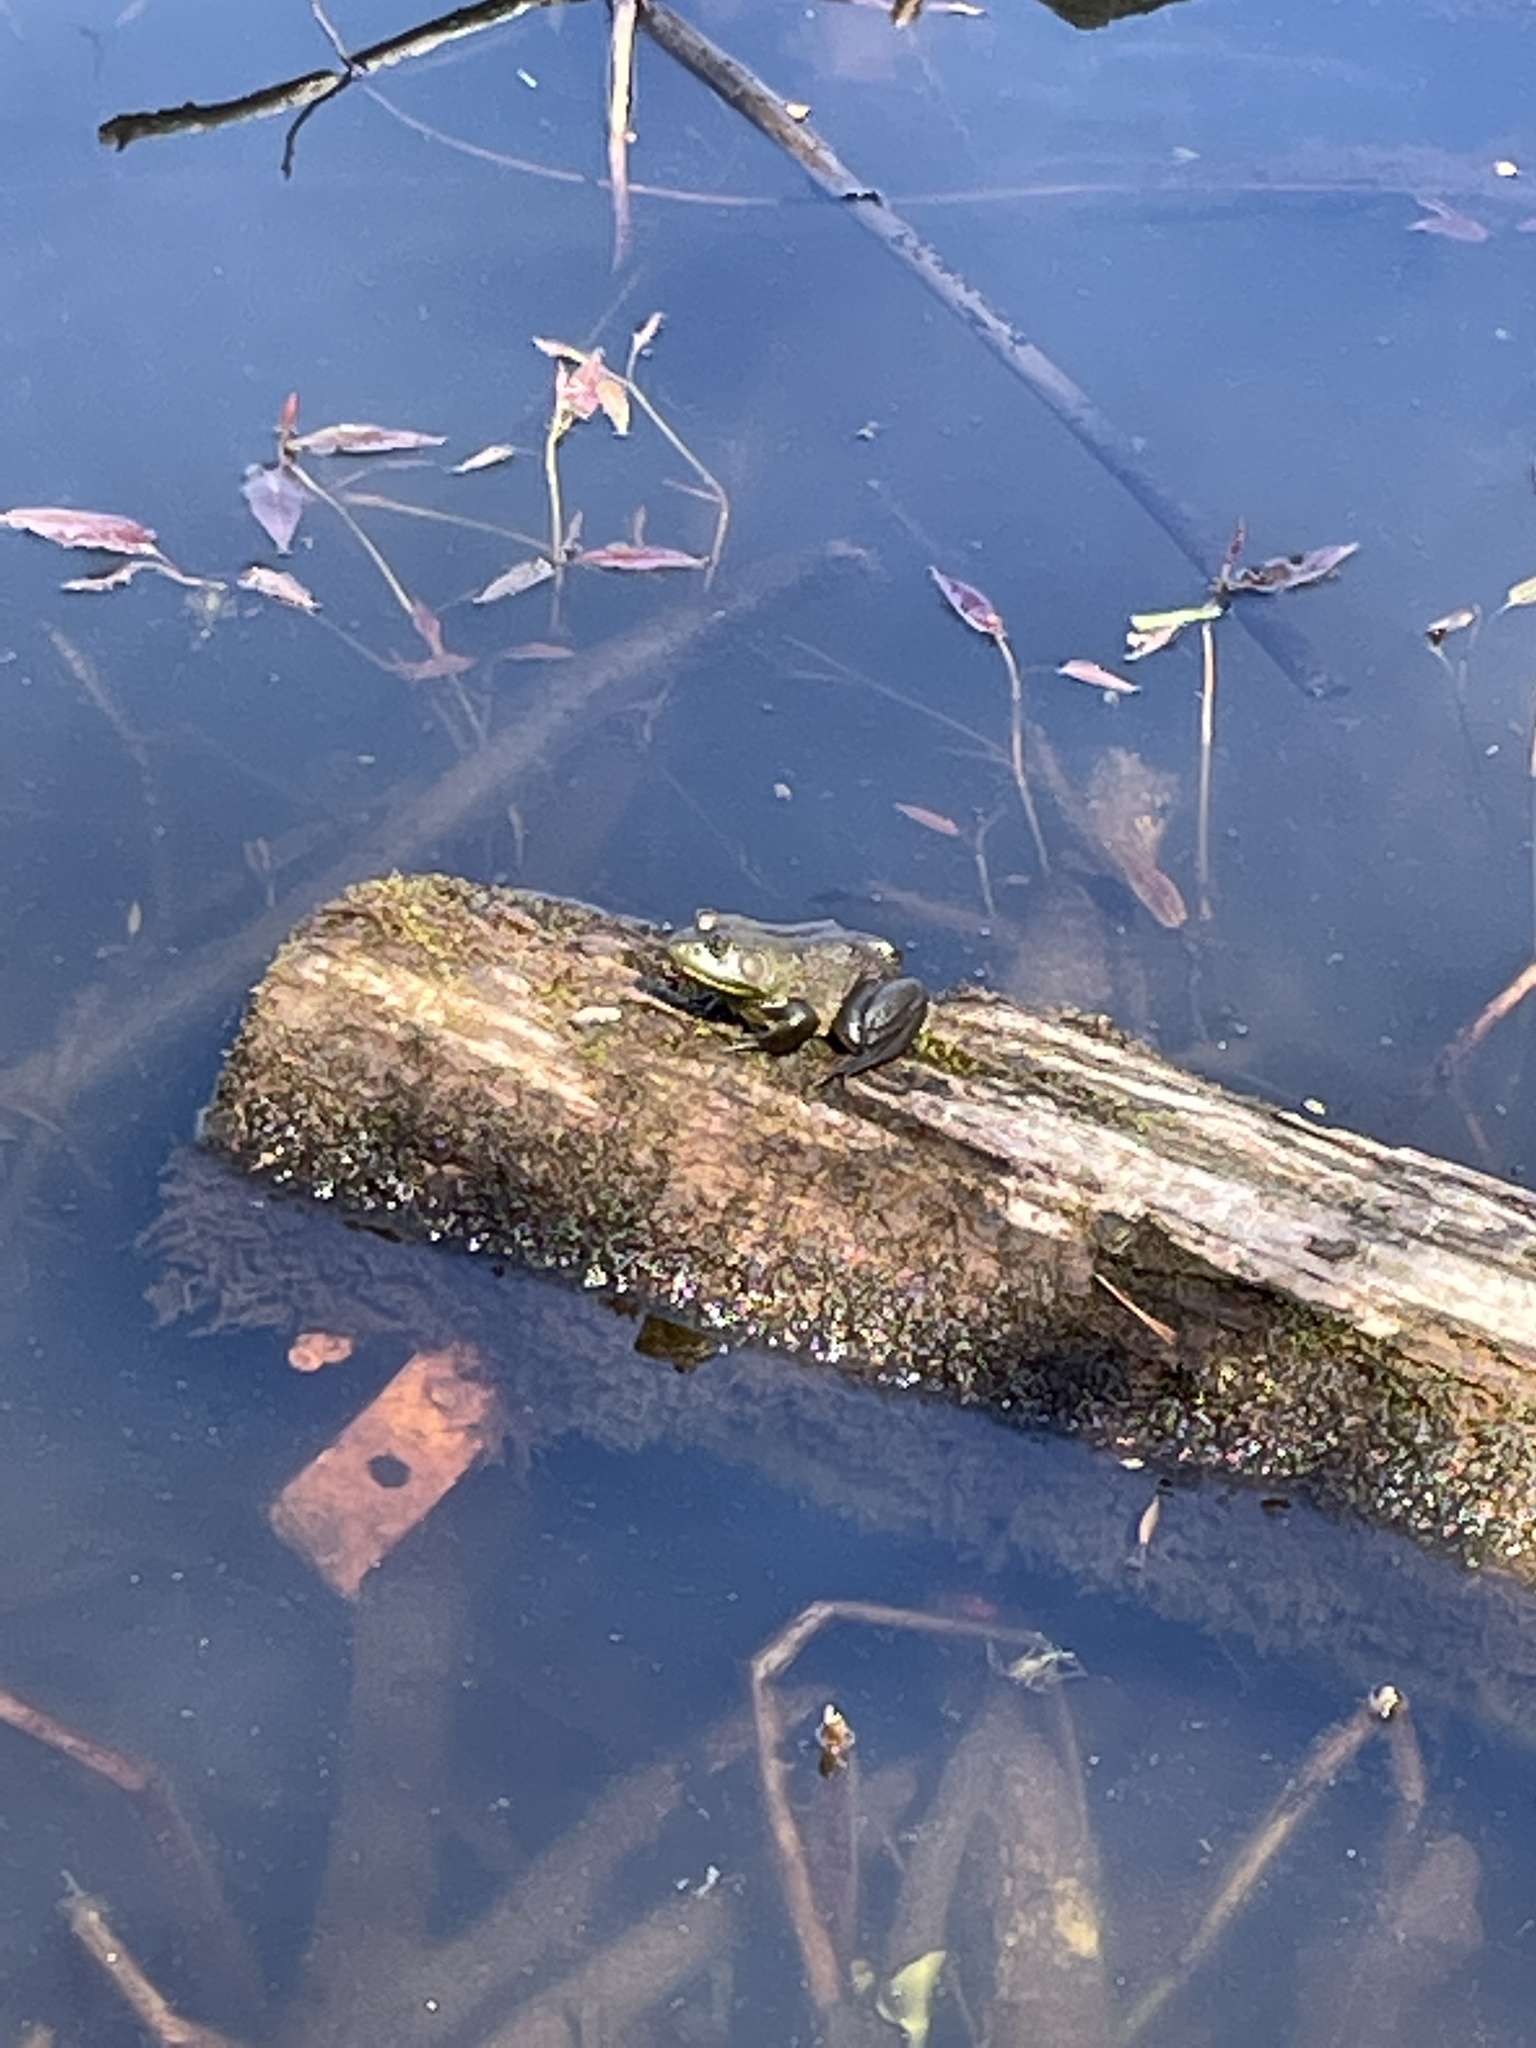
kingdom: Animalia
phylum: Chordata
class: Amphibia
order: Anura
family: Ranidae
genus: Lithobates
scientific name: Lithobates catesbeianus
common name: American bullfrog
